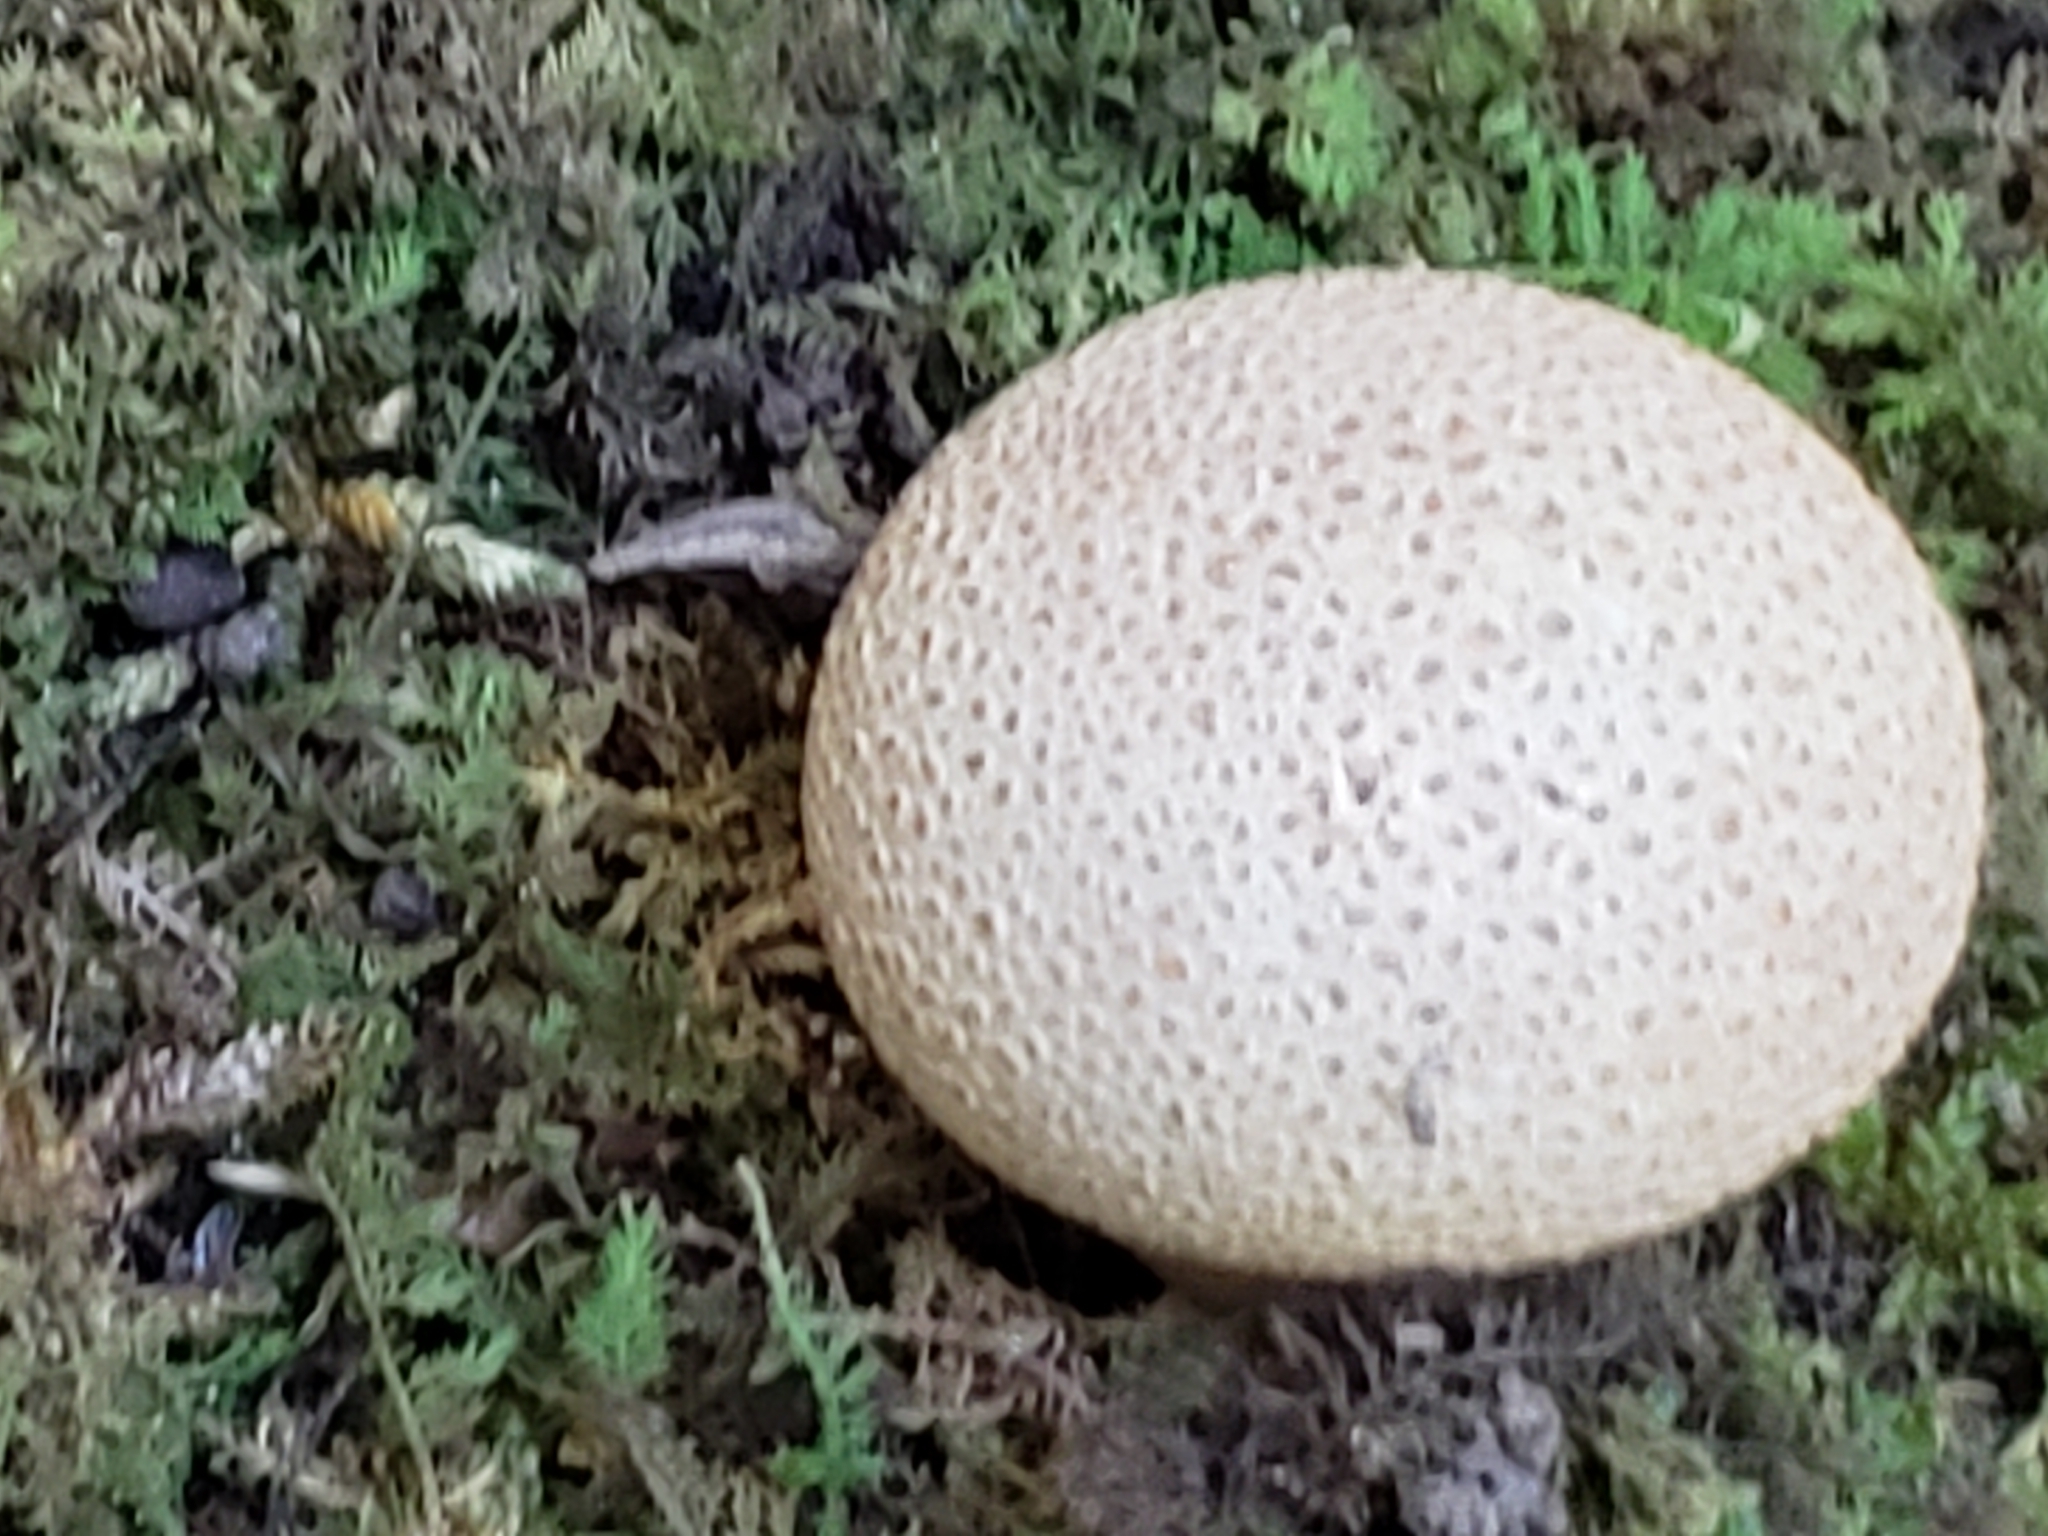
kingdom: Fungi
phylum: Basidiomycota
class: Agaricomycetes
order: Boletales
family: Sclerodermataceae
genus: Scleroderma
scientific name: Scleroderma citrinum
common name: Common earthball
